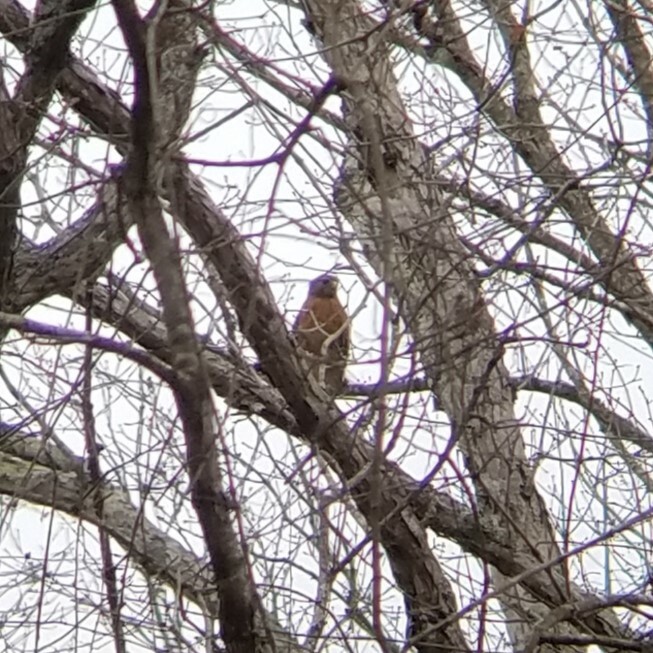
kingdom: Animalia
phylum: Chordata
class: Aves
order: Accipitriformes
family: Accipitridae
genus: Buteo
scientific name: Buteo lineatus
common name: Red-shouldered hawk
